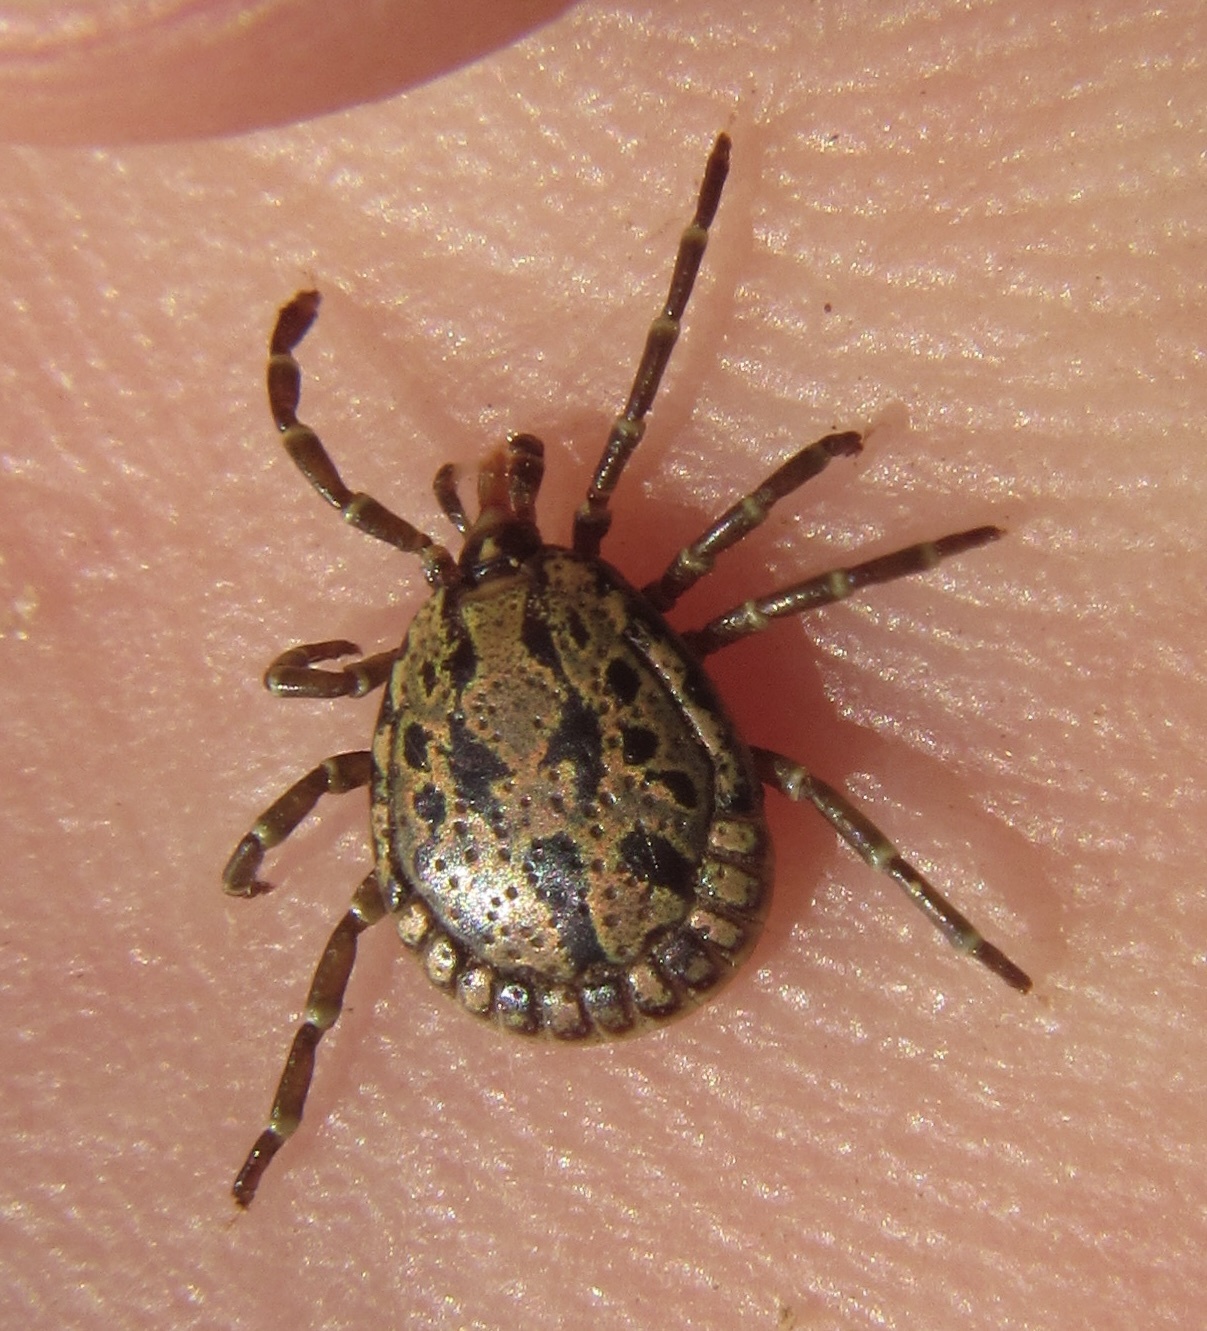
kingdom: Animalia
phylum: Arthropoda
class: Arachnida
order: Ixodida
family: Ixodidae
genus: Amblyomma
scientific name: Amblyomma nuttalli
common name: Pan-african tortoise tick
